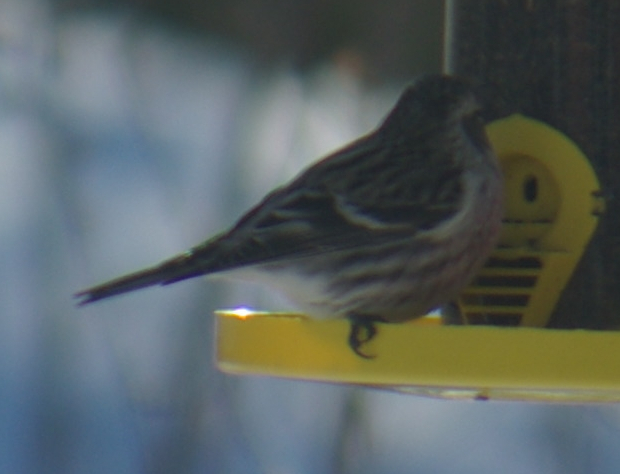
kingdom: Animalia
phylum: Chordata
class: Aves
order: Passeriformes
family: Fringillidae
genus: Acanthis
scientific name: Acanthis flammea
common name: Common redpoll
